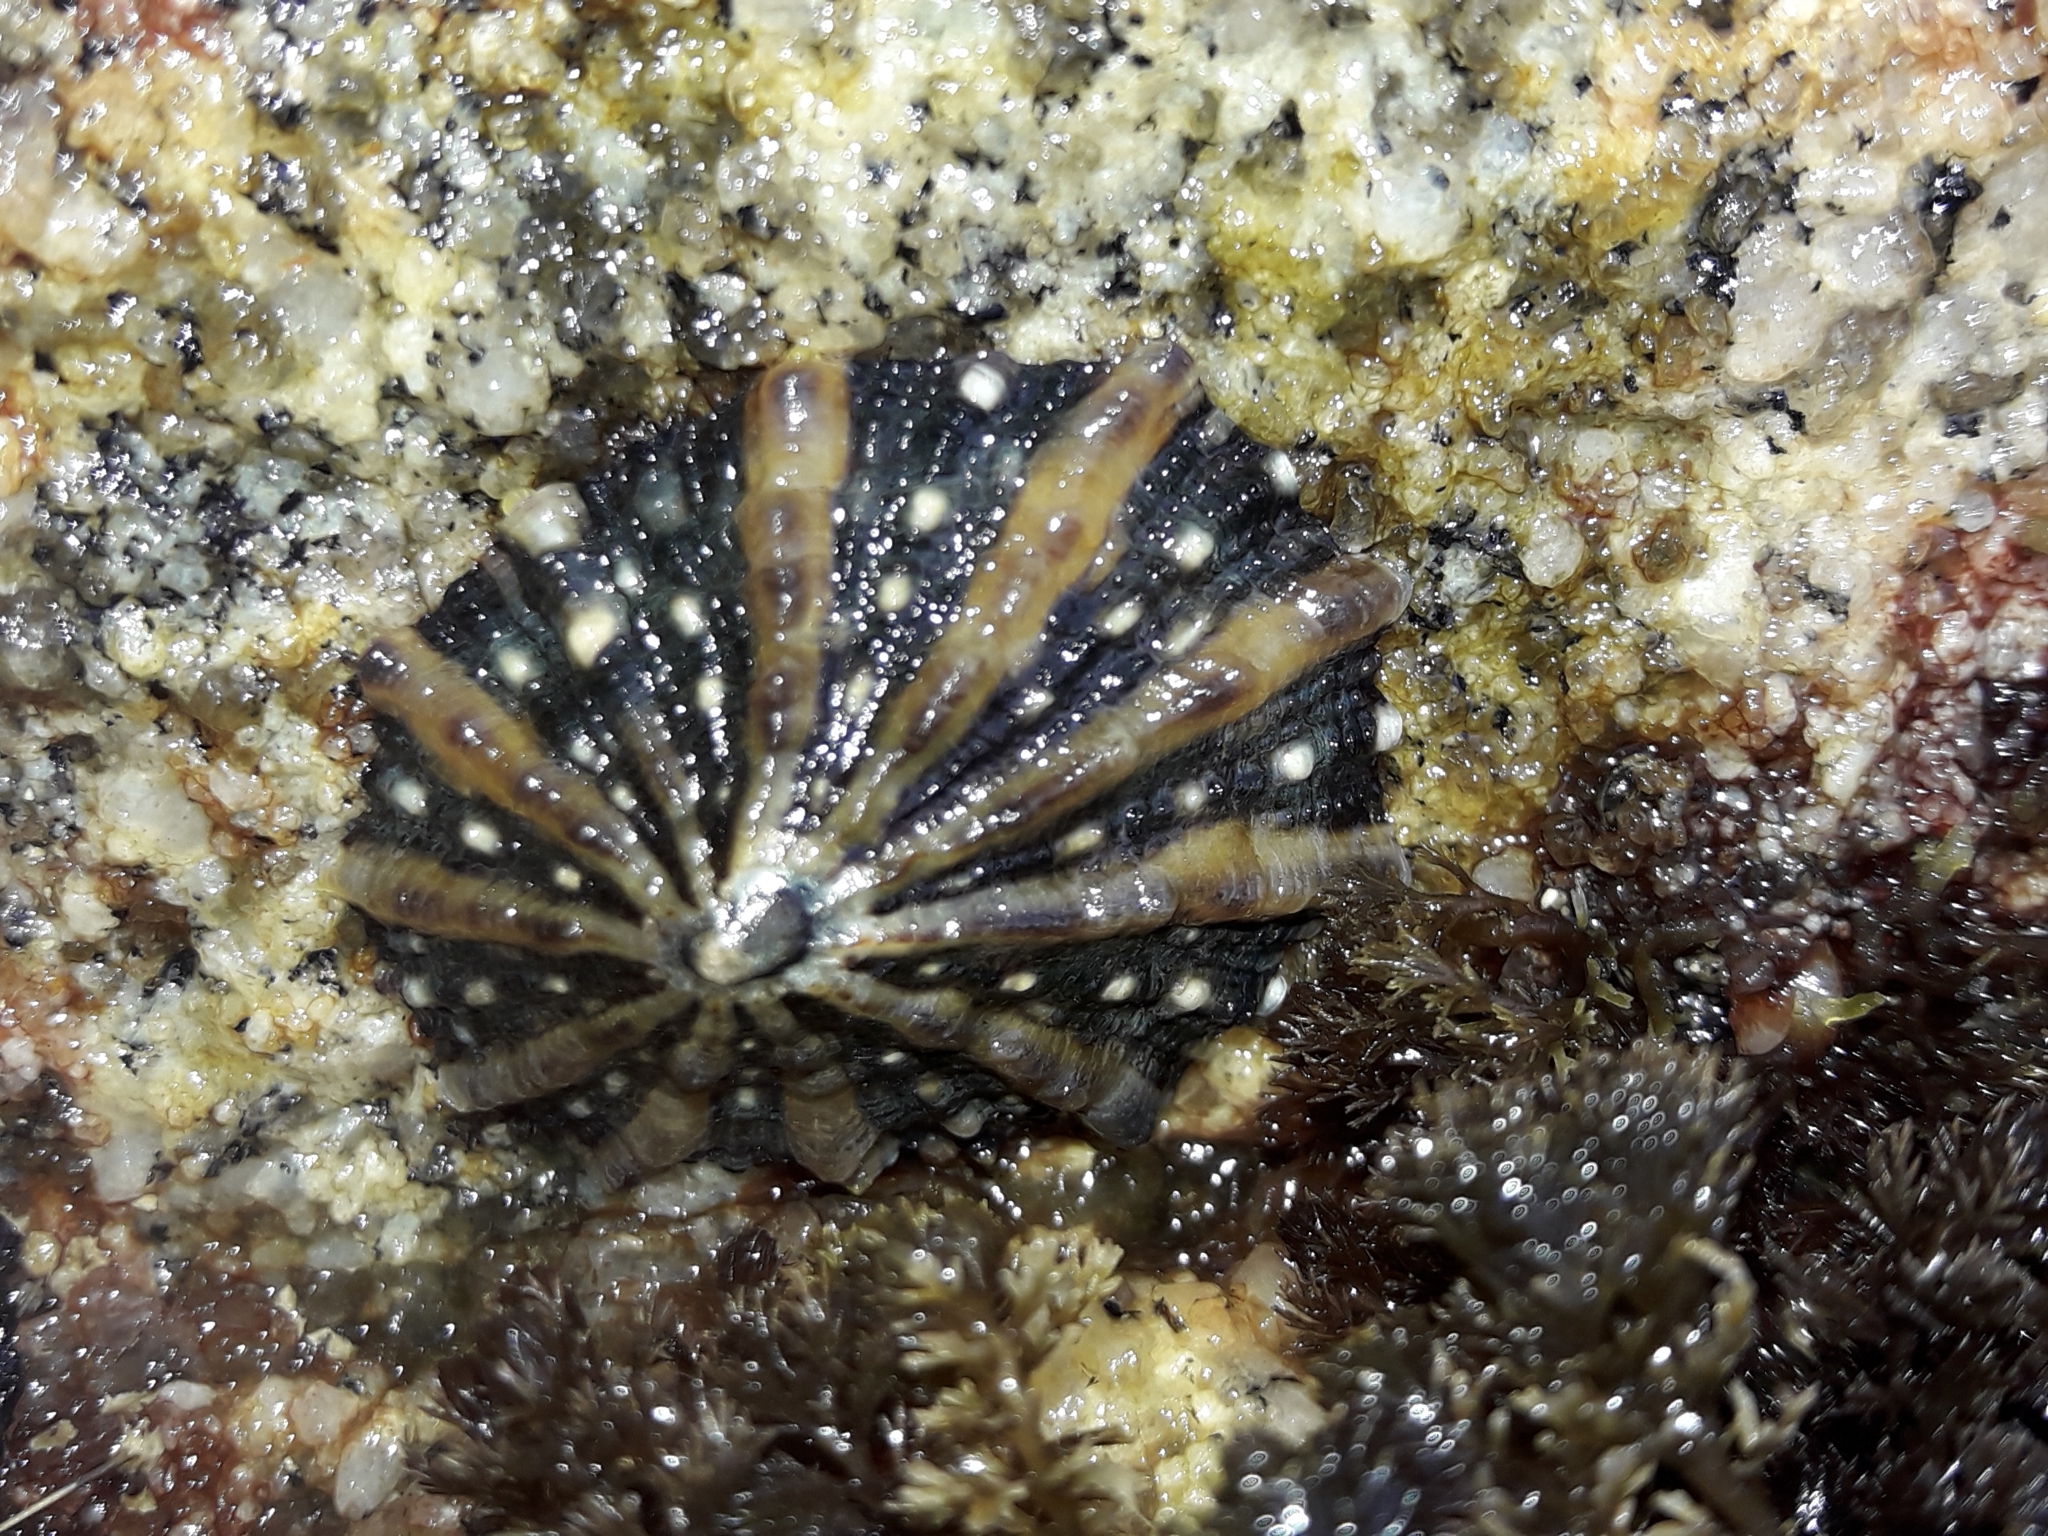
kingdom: Animalia
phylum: Mollusca
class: Gastropoda
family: Nacellidae
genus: Cellana
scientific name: Cellana ornata
